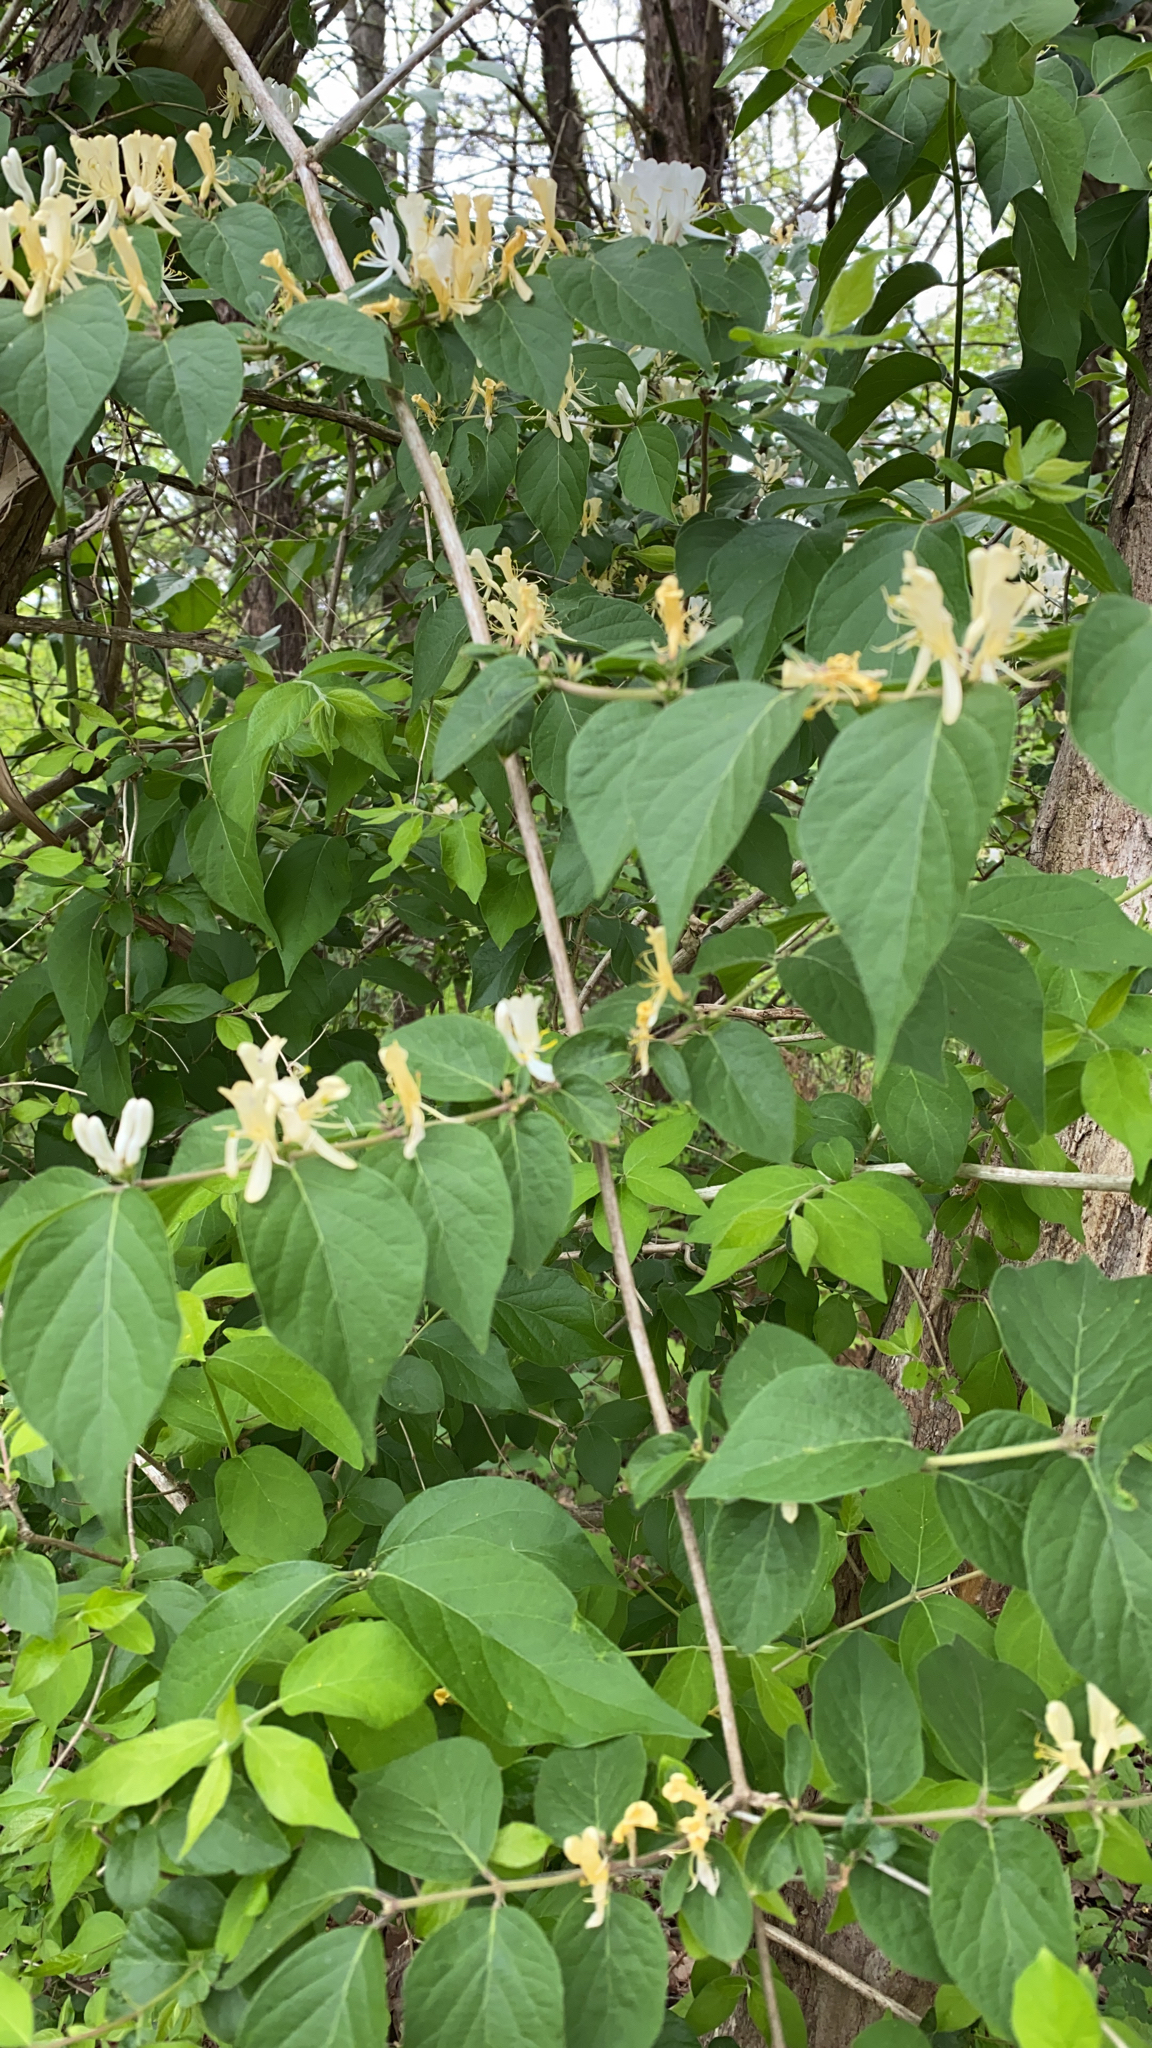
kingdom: Plantae
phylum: Tracheophyta
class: Magnoliopsida
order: Dipsacales
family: Caprifoliaceae
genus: Lonicera
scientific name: Lonicera maackii
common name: Amur honeysuckle
